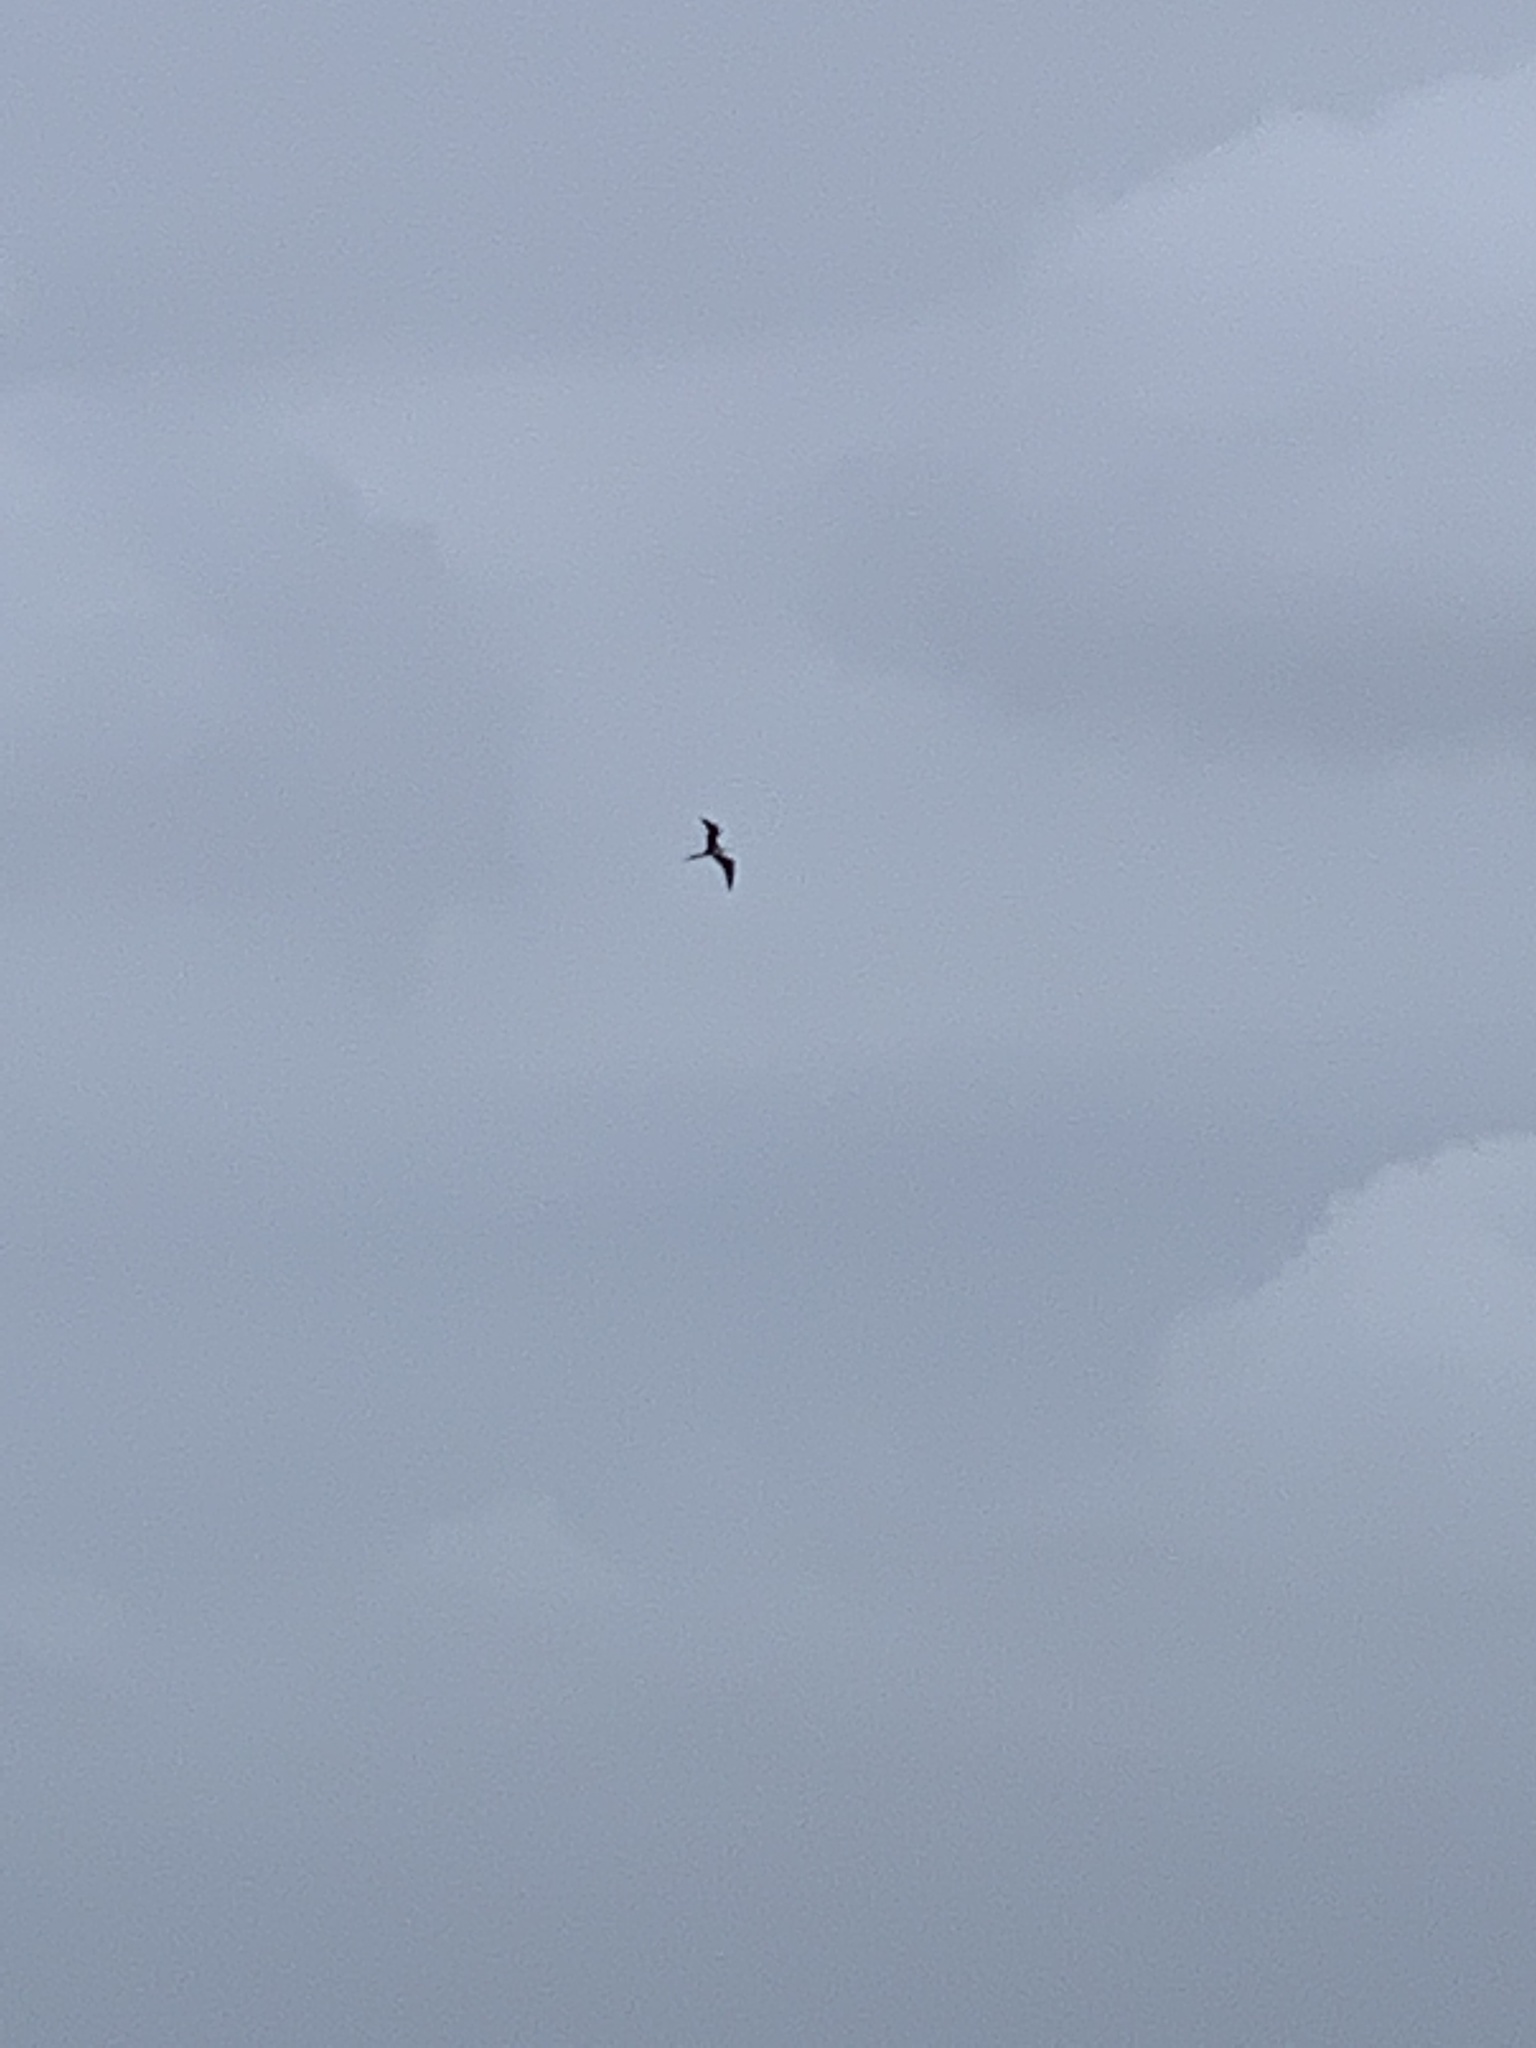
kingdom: Animalia
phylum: Chordata
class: Aves
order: Suliformes
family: Fregatidae
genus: Fregata
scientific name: Fregata magnificens
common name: Magnificent frigatebird
